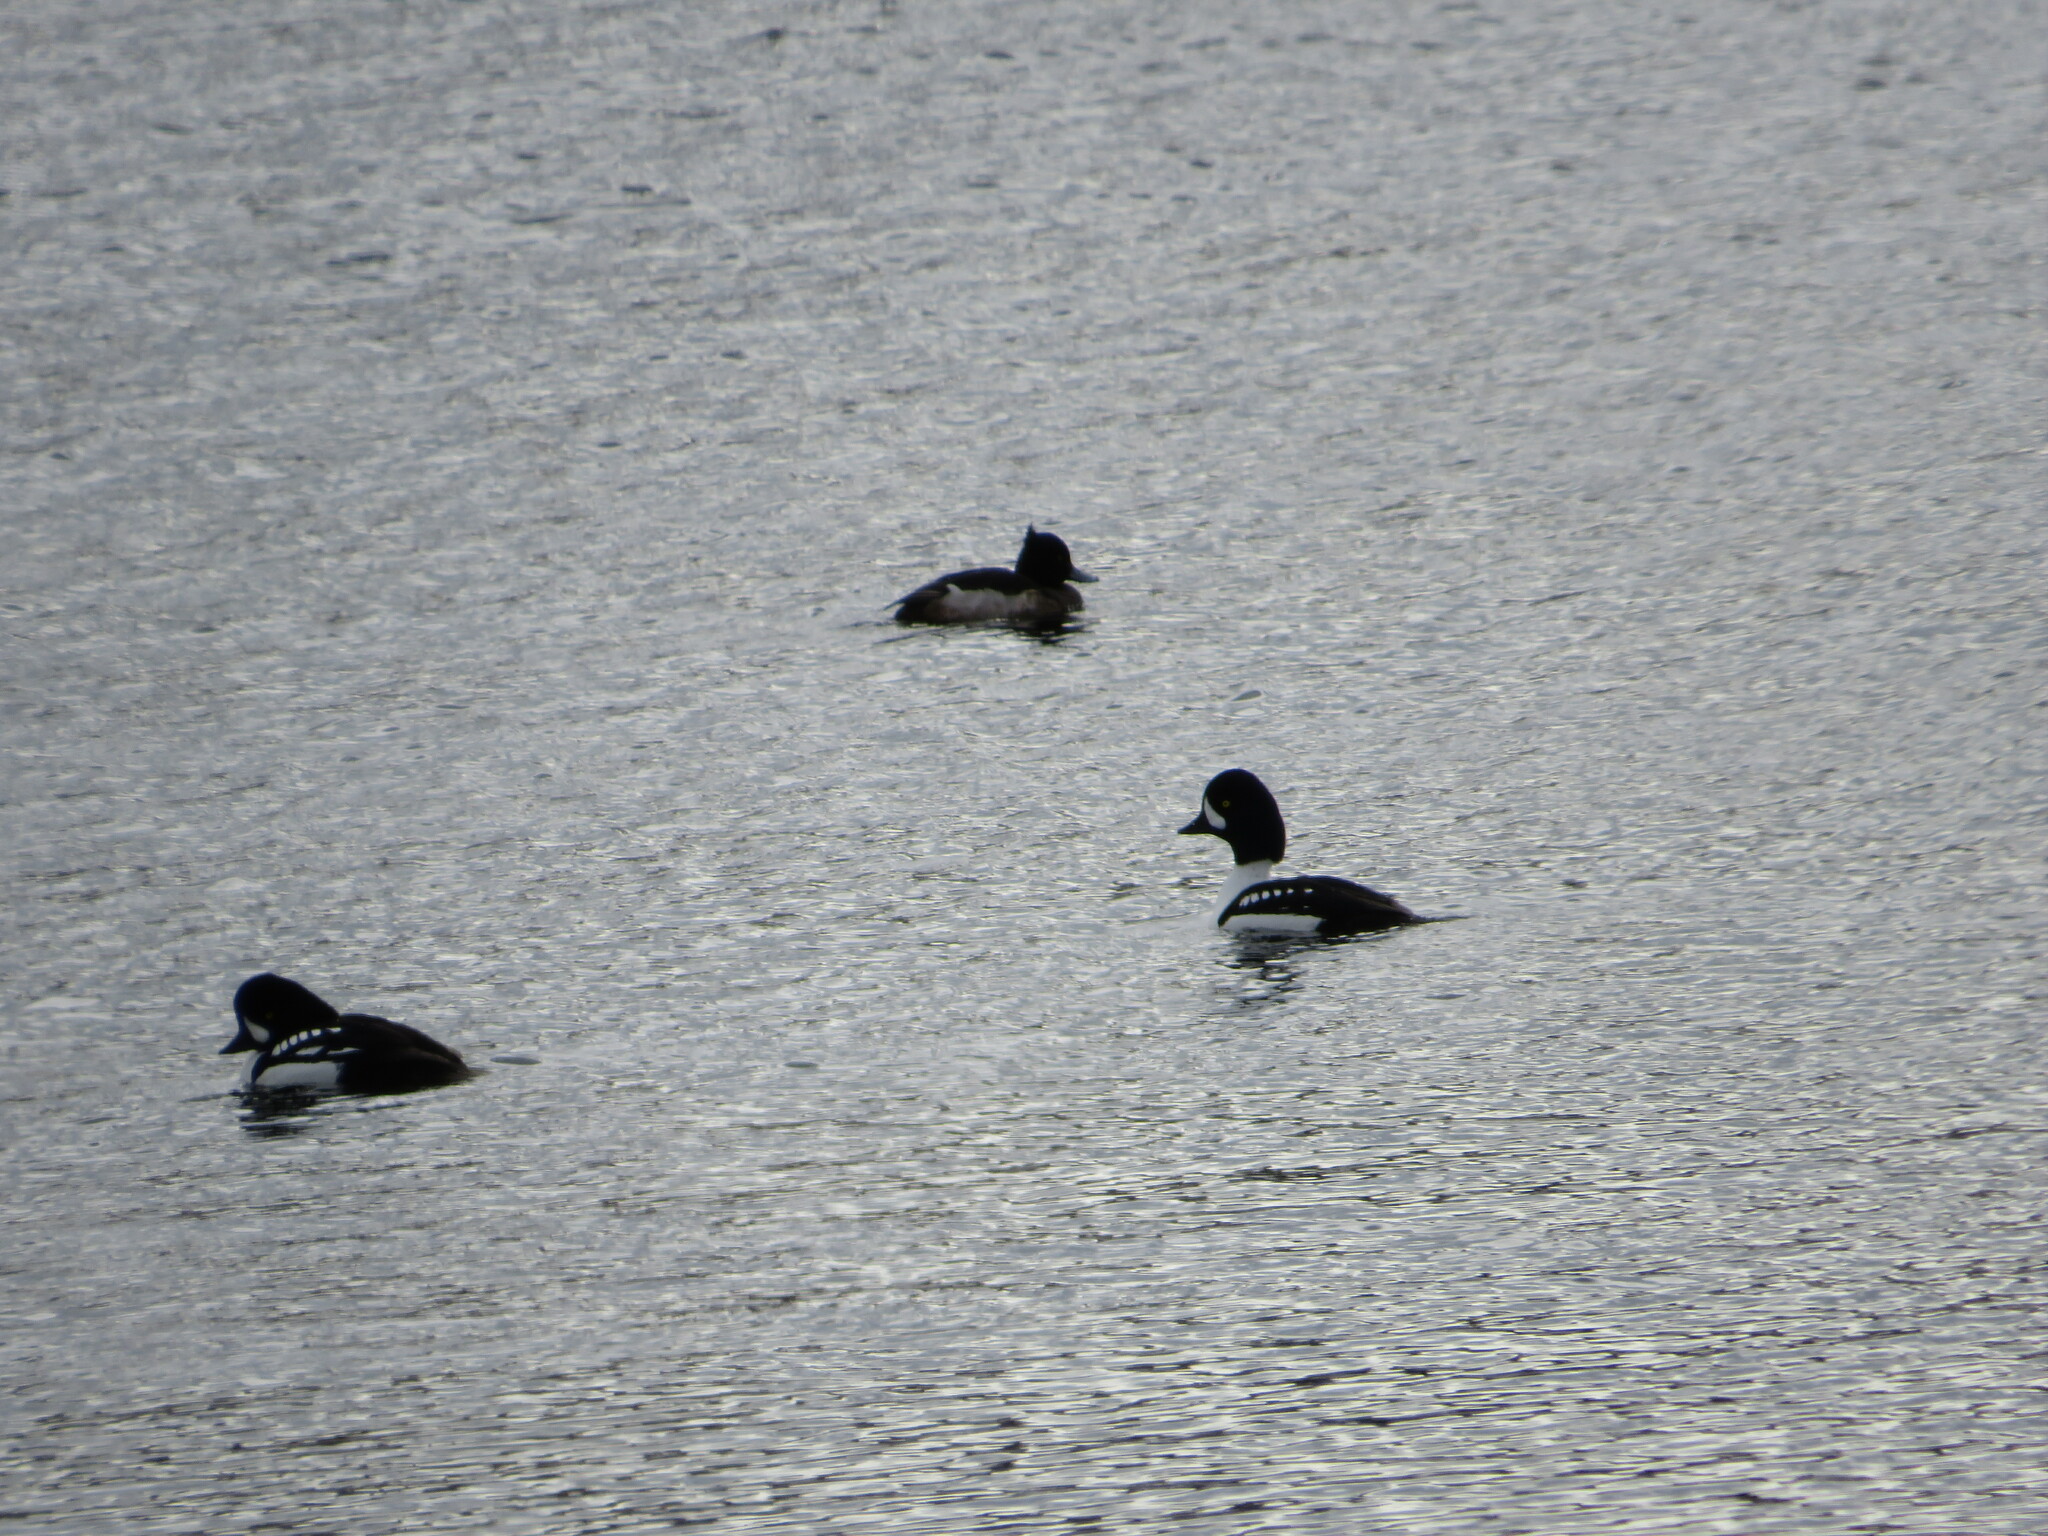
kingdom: Animalia
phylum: Chordata
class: Aves
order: Anseriformes
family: Anatidae
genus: Aythya
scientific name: Aythya fuligula
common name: Tufted duck
